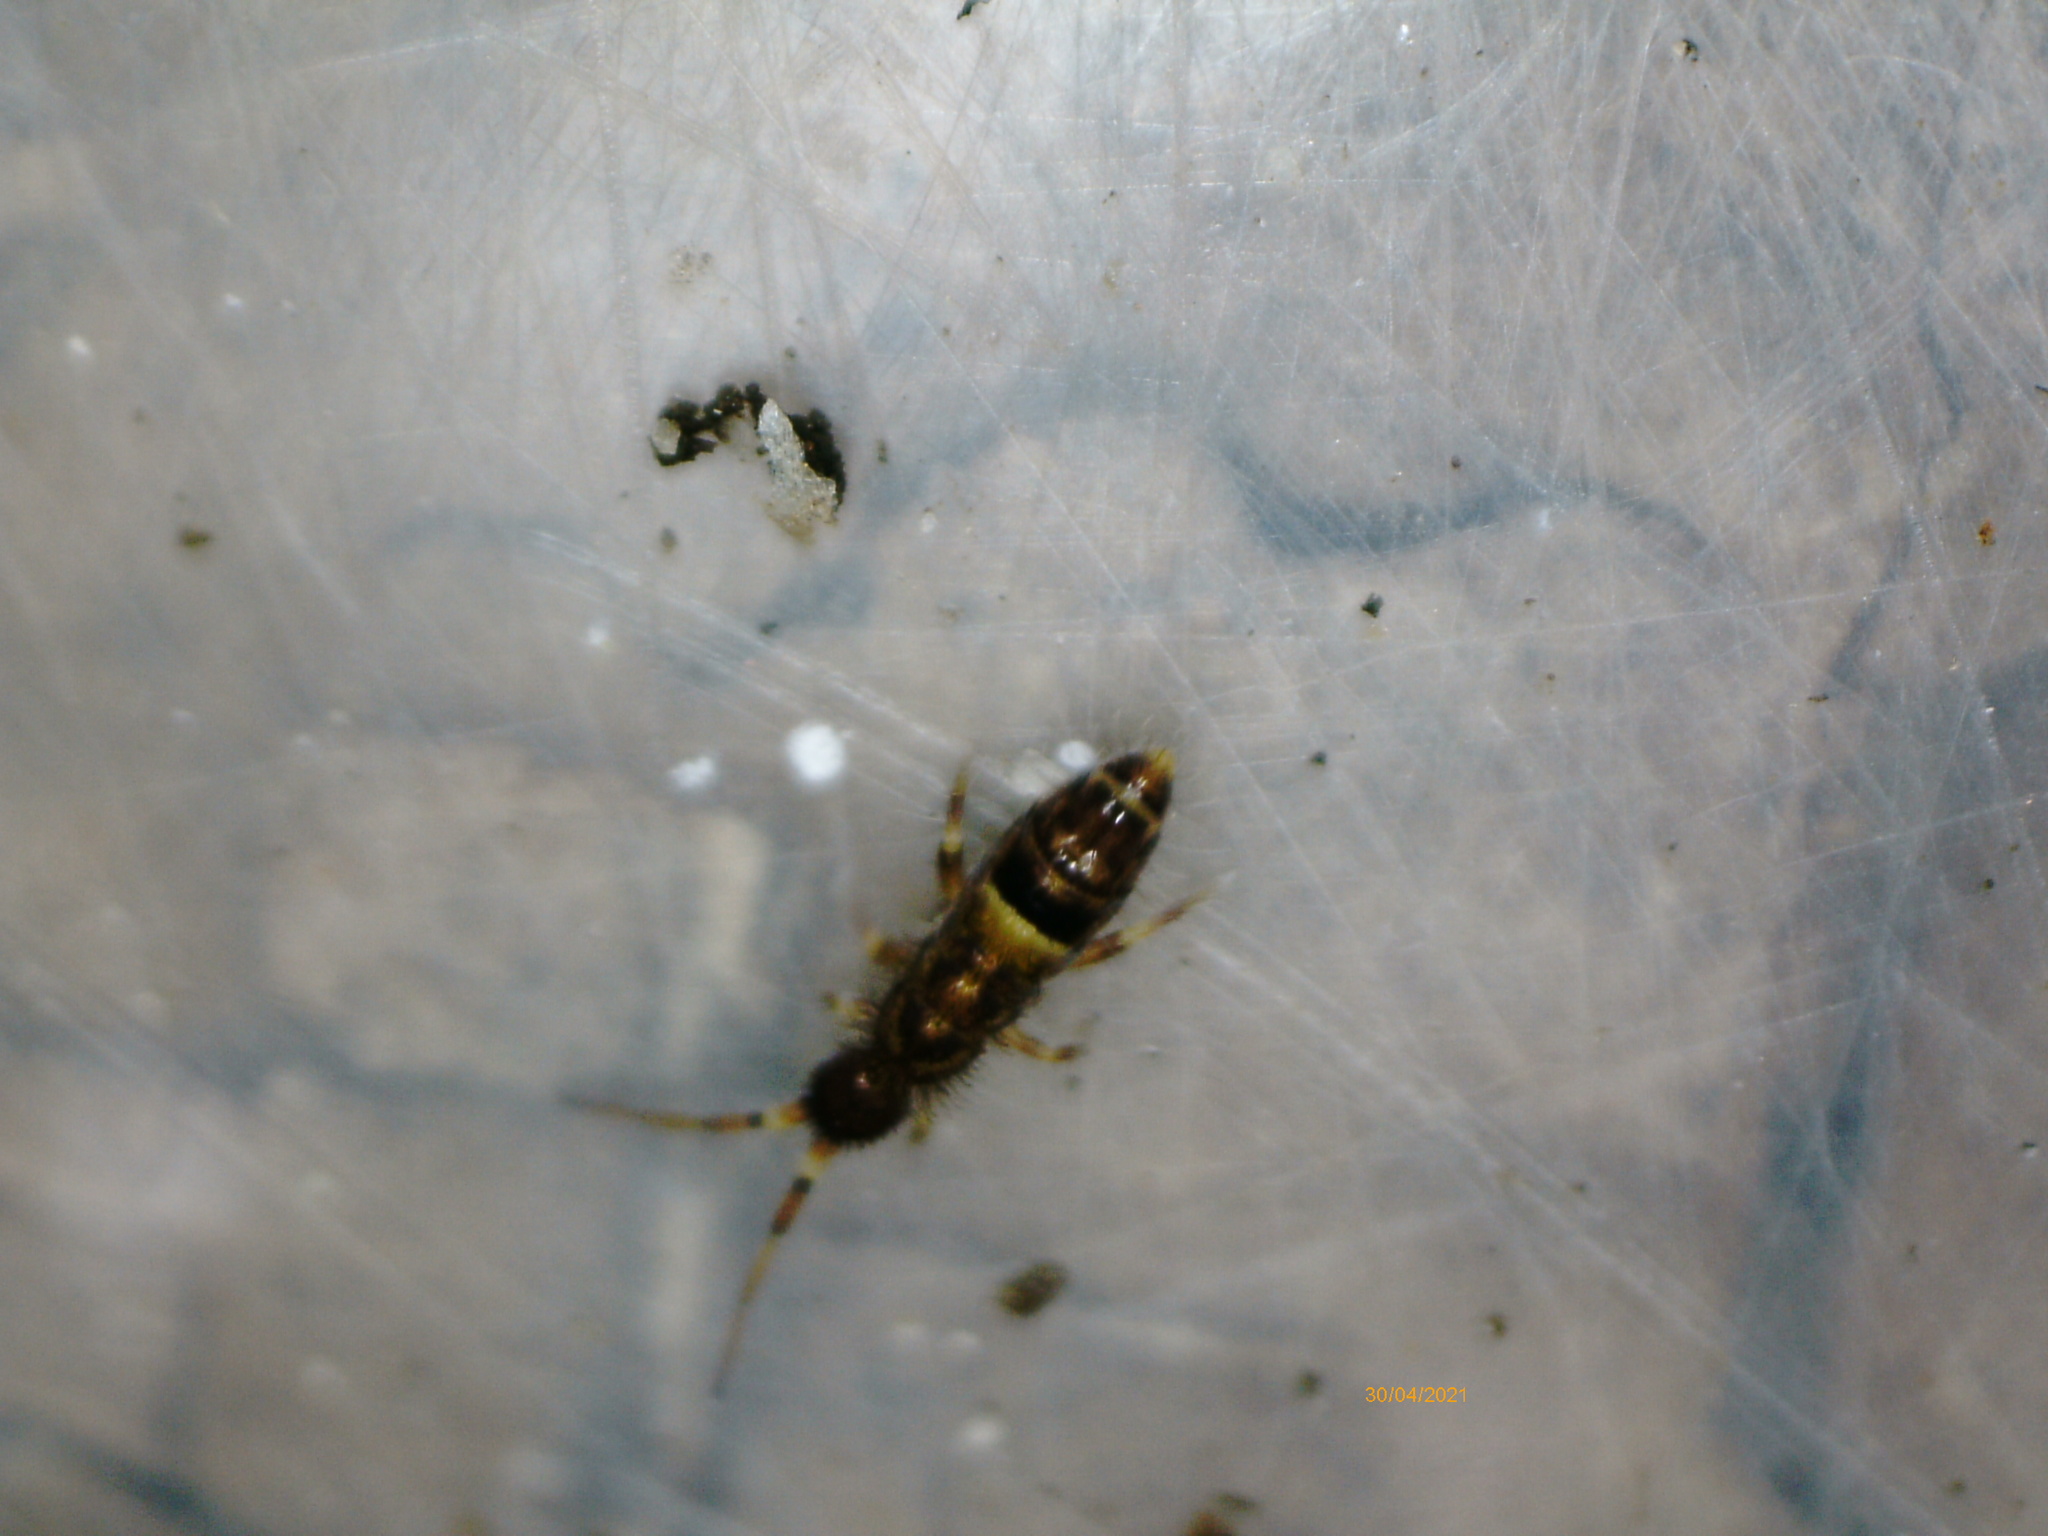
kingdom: Animalia
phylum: Arthropoda
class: Collembola
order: Entomobryomorpha
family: Orchesellidae
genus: Orchesella
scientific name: Orchesella cincta
